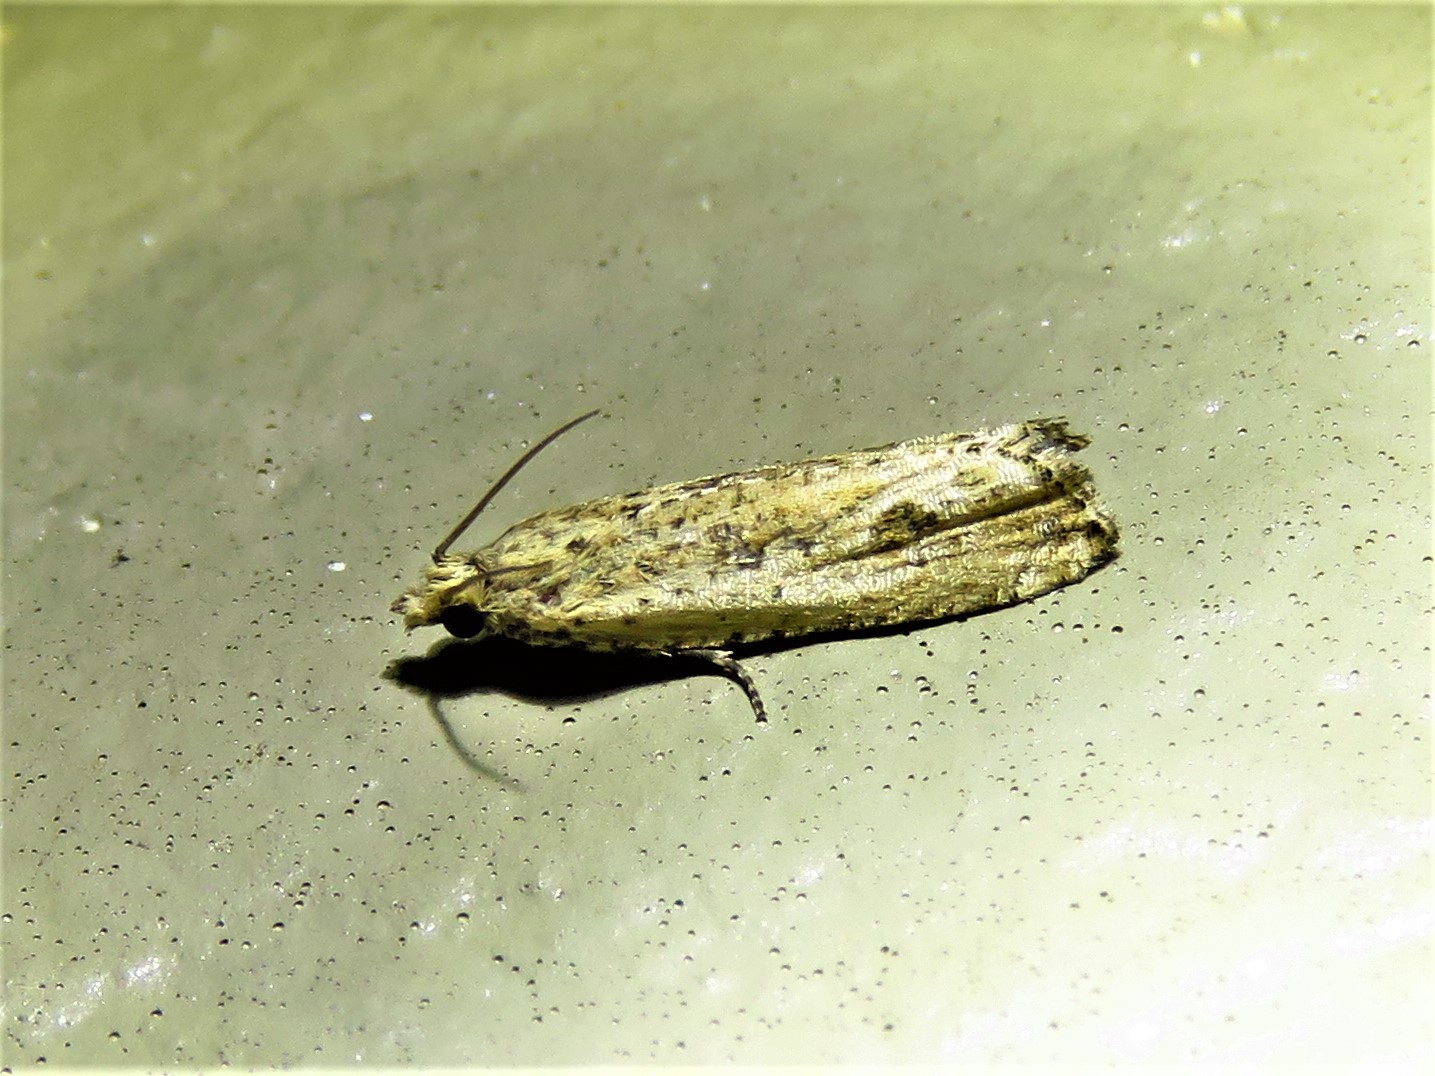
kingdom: Animalia
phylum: Arthropoda
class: Insecta
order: Lepidoptera
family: Tortricidae
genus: Bactra
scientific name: Bactra verutana
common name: Javelin moth
